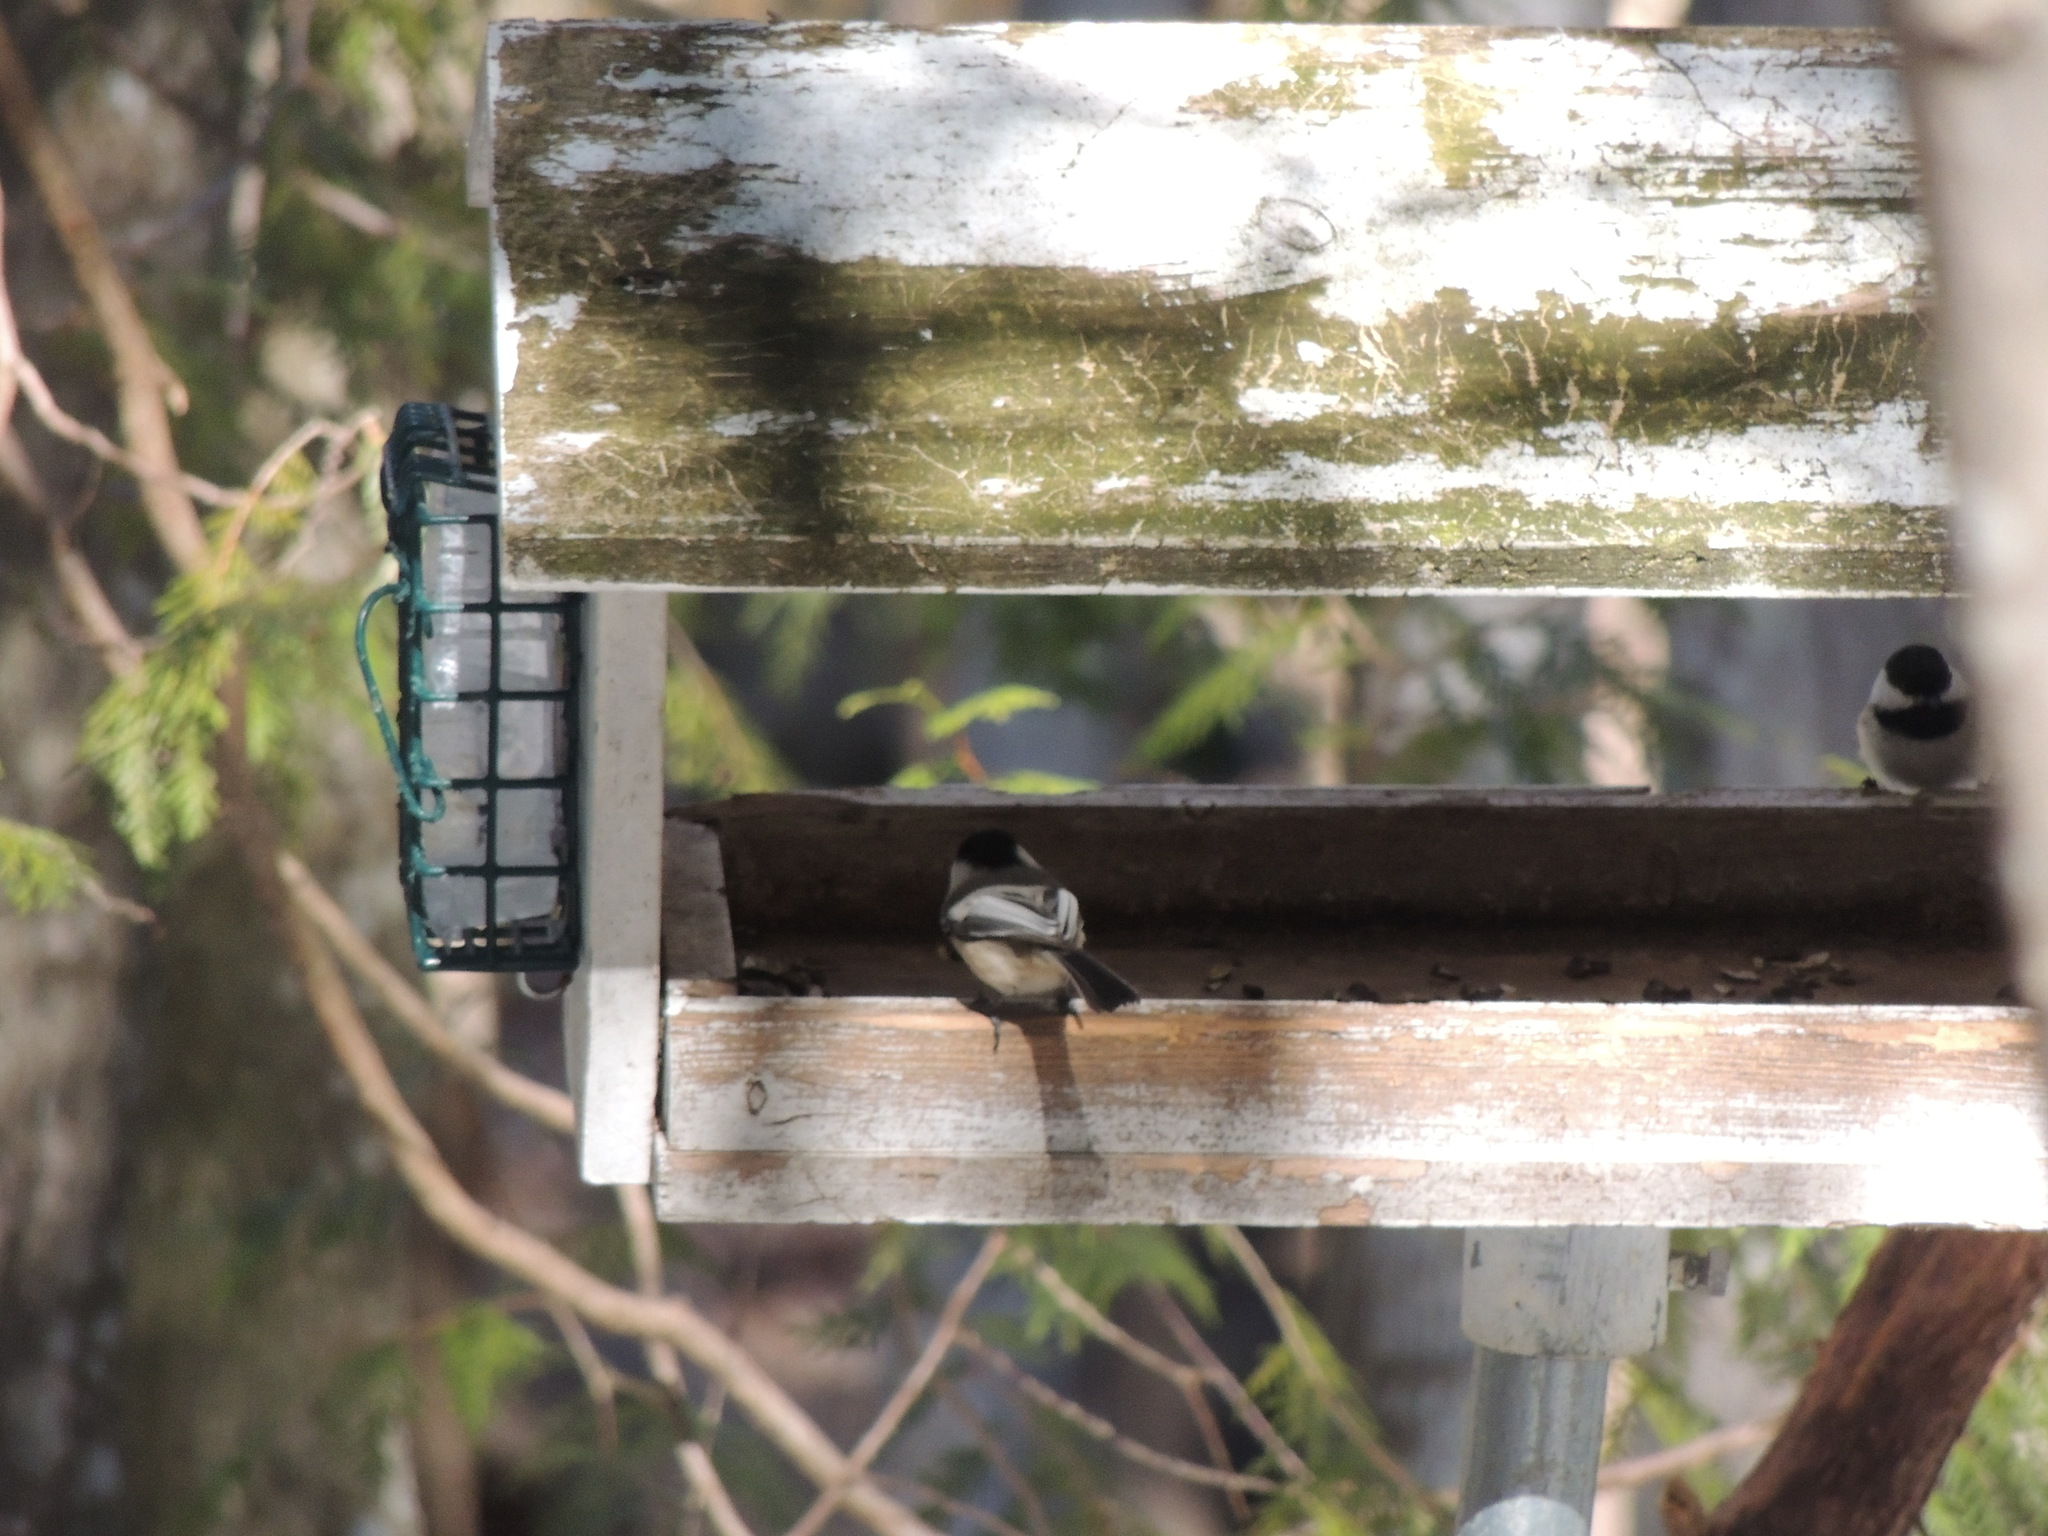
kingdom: Animalia
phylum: Chordata
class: Aves
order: Passeriformes
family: Paridae
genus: Poecile
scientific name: Poecile atricapillus
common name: Black-capped chickadee
